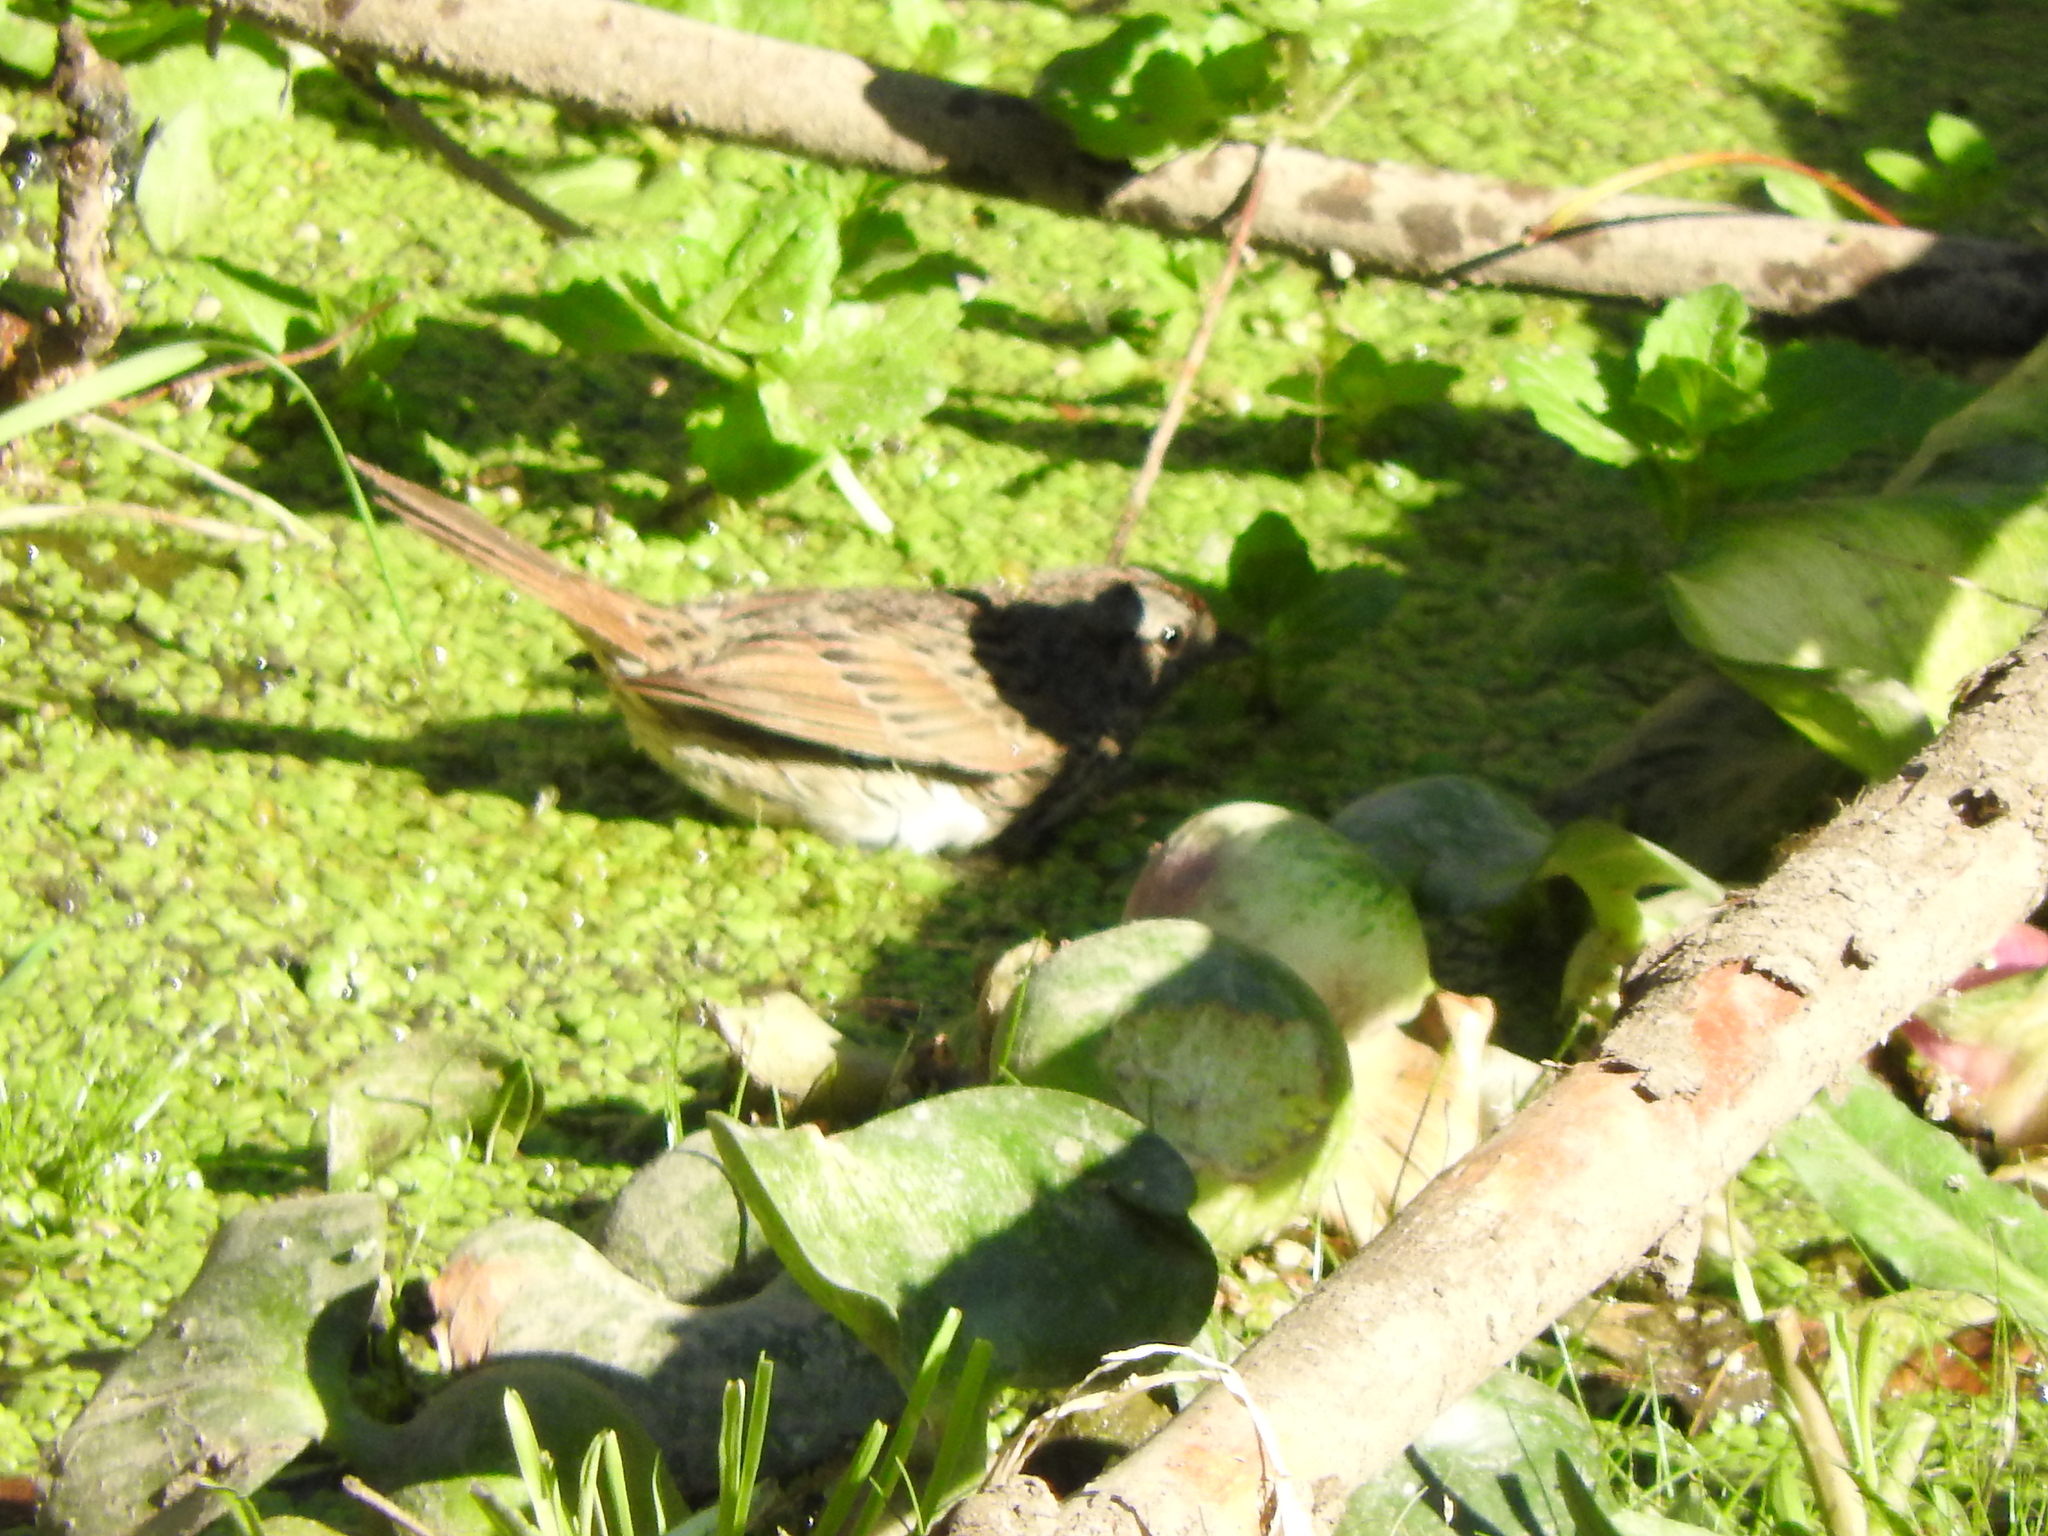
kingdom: Animalia
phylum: Chordata
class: Aves
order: Passeriformes
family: Passerellidae
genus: Melospiza
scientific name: Melospiza lincolnii
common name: Lincoln's sparrow
